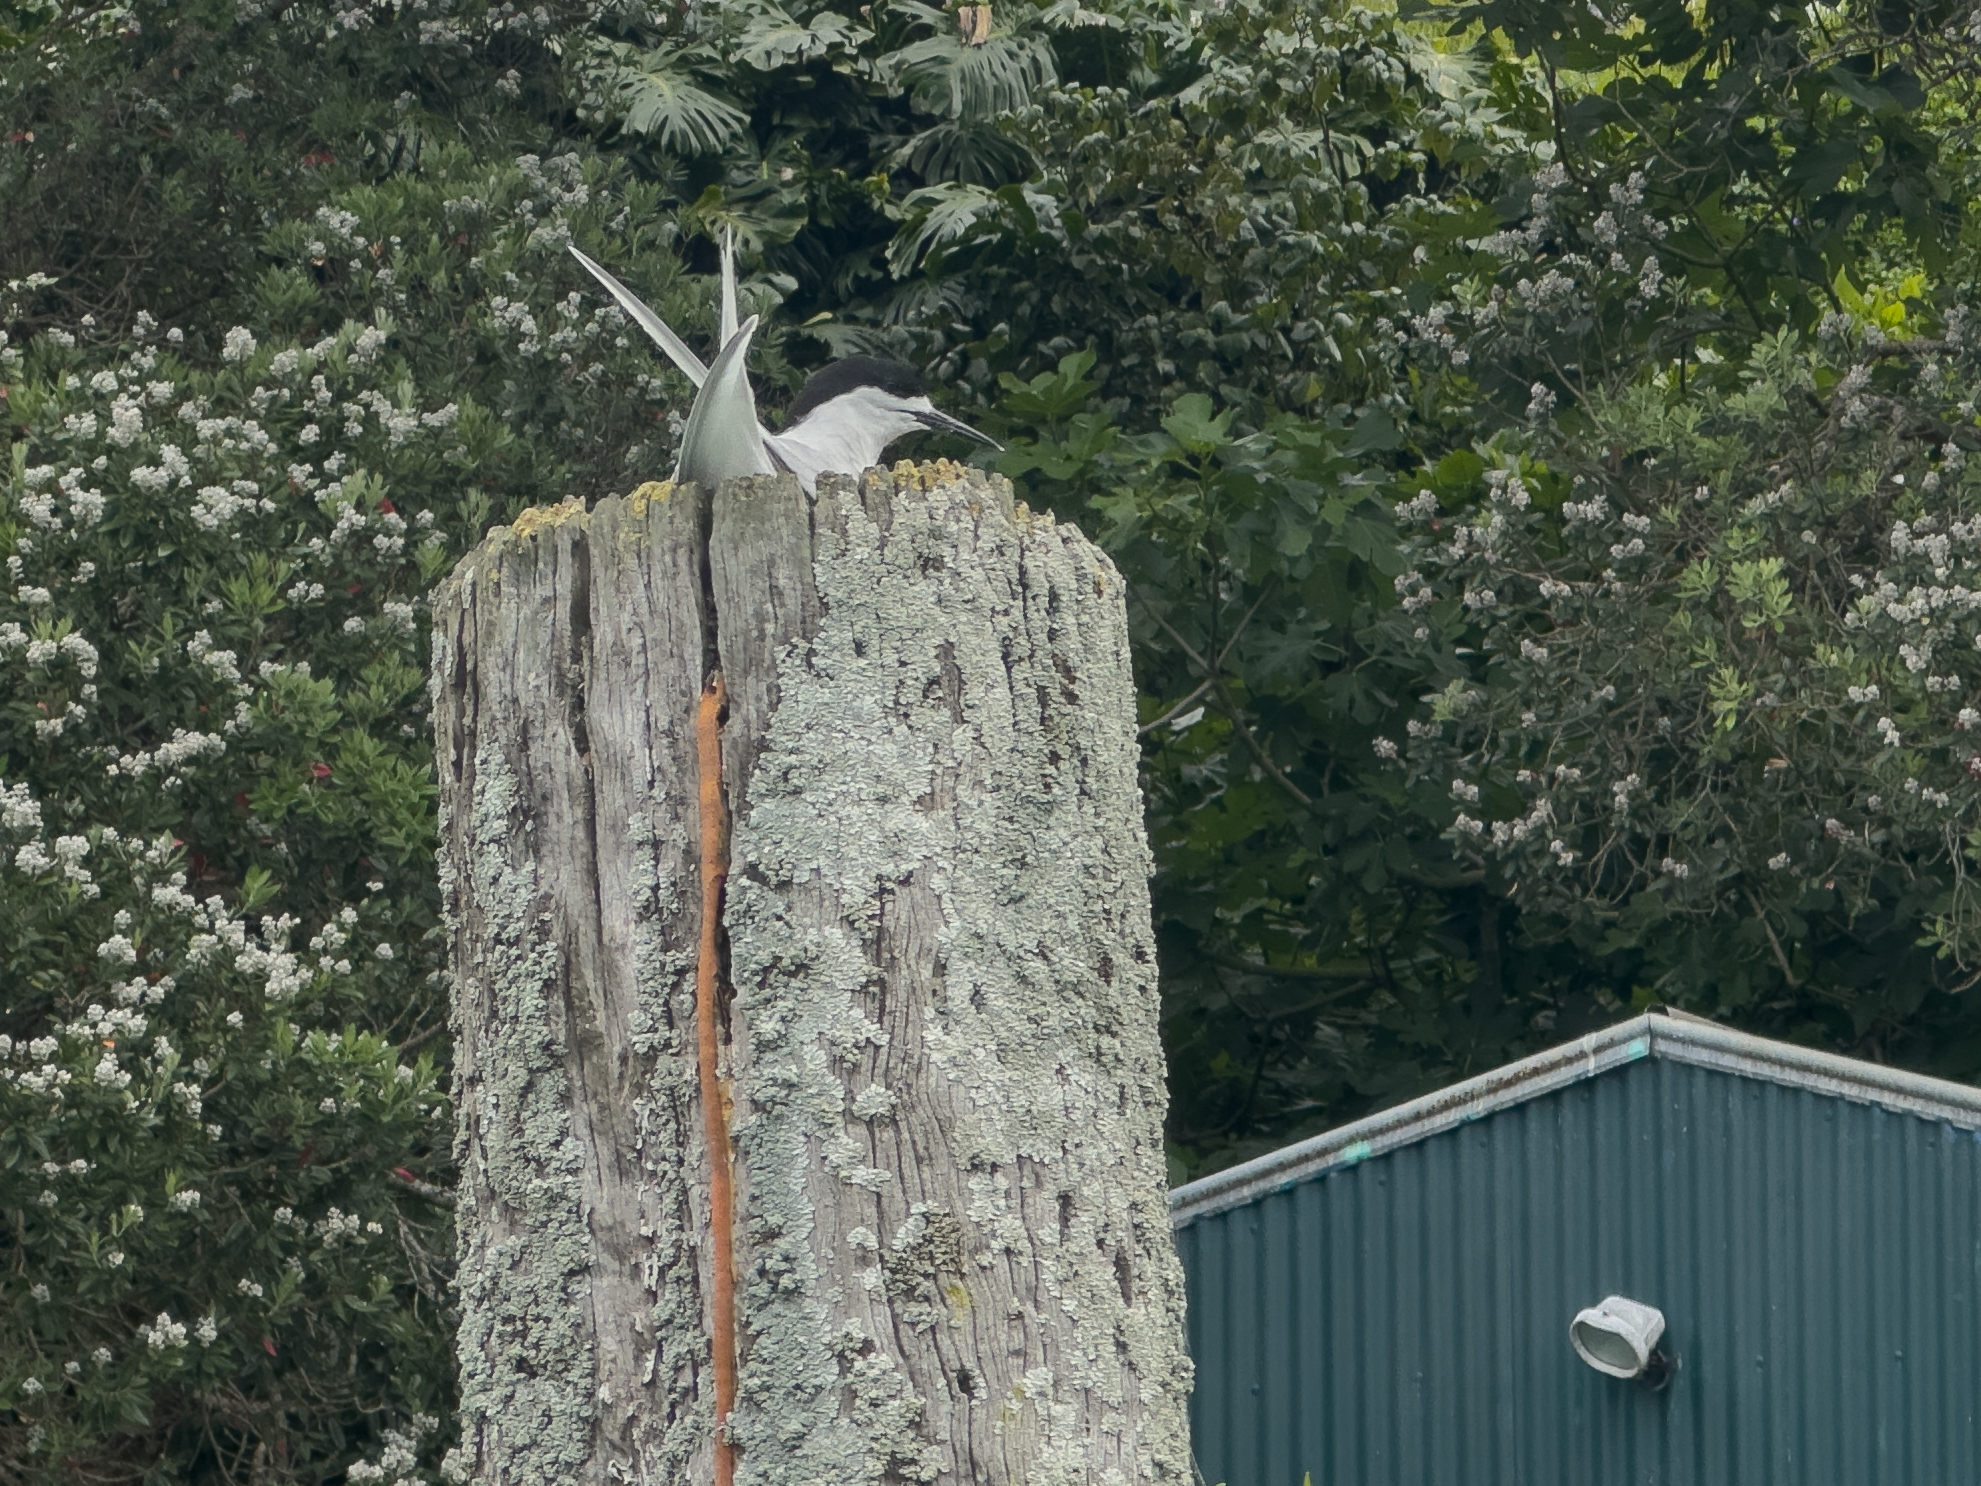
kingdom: Animalia
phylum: Chordata
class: Aves
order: Charadriiformes
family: Laridae
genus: Sterna
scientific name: Sterna striata
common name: White-fronted tern
